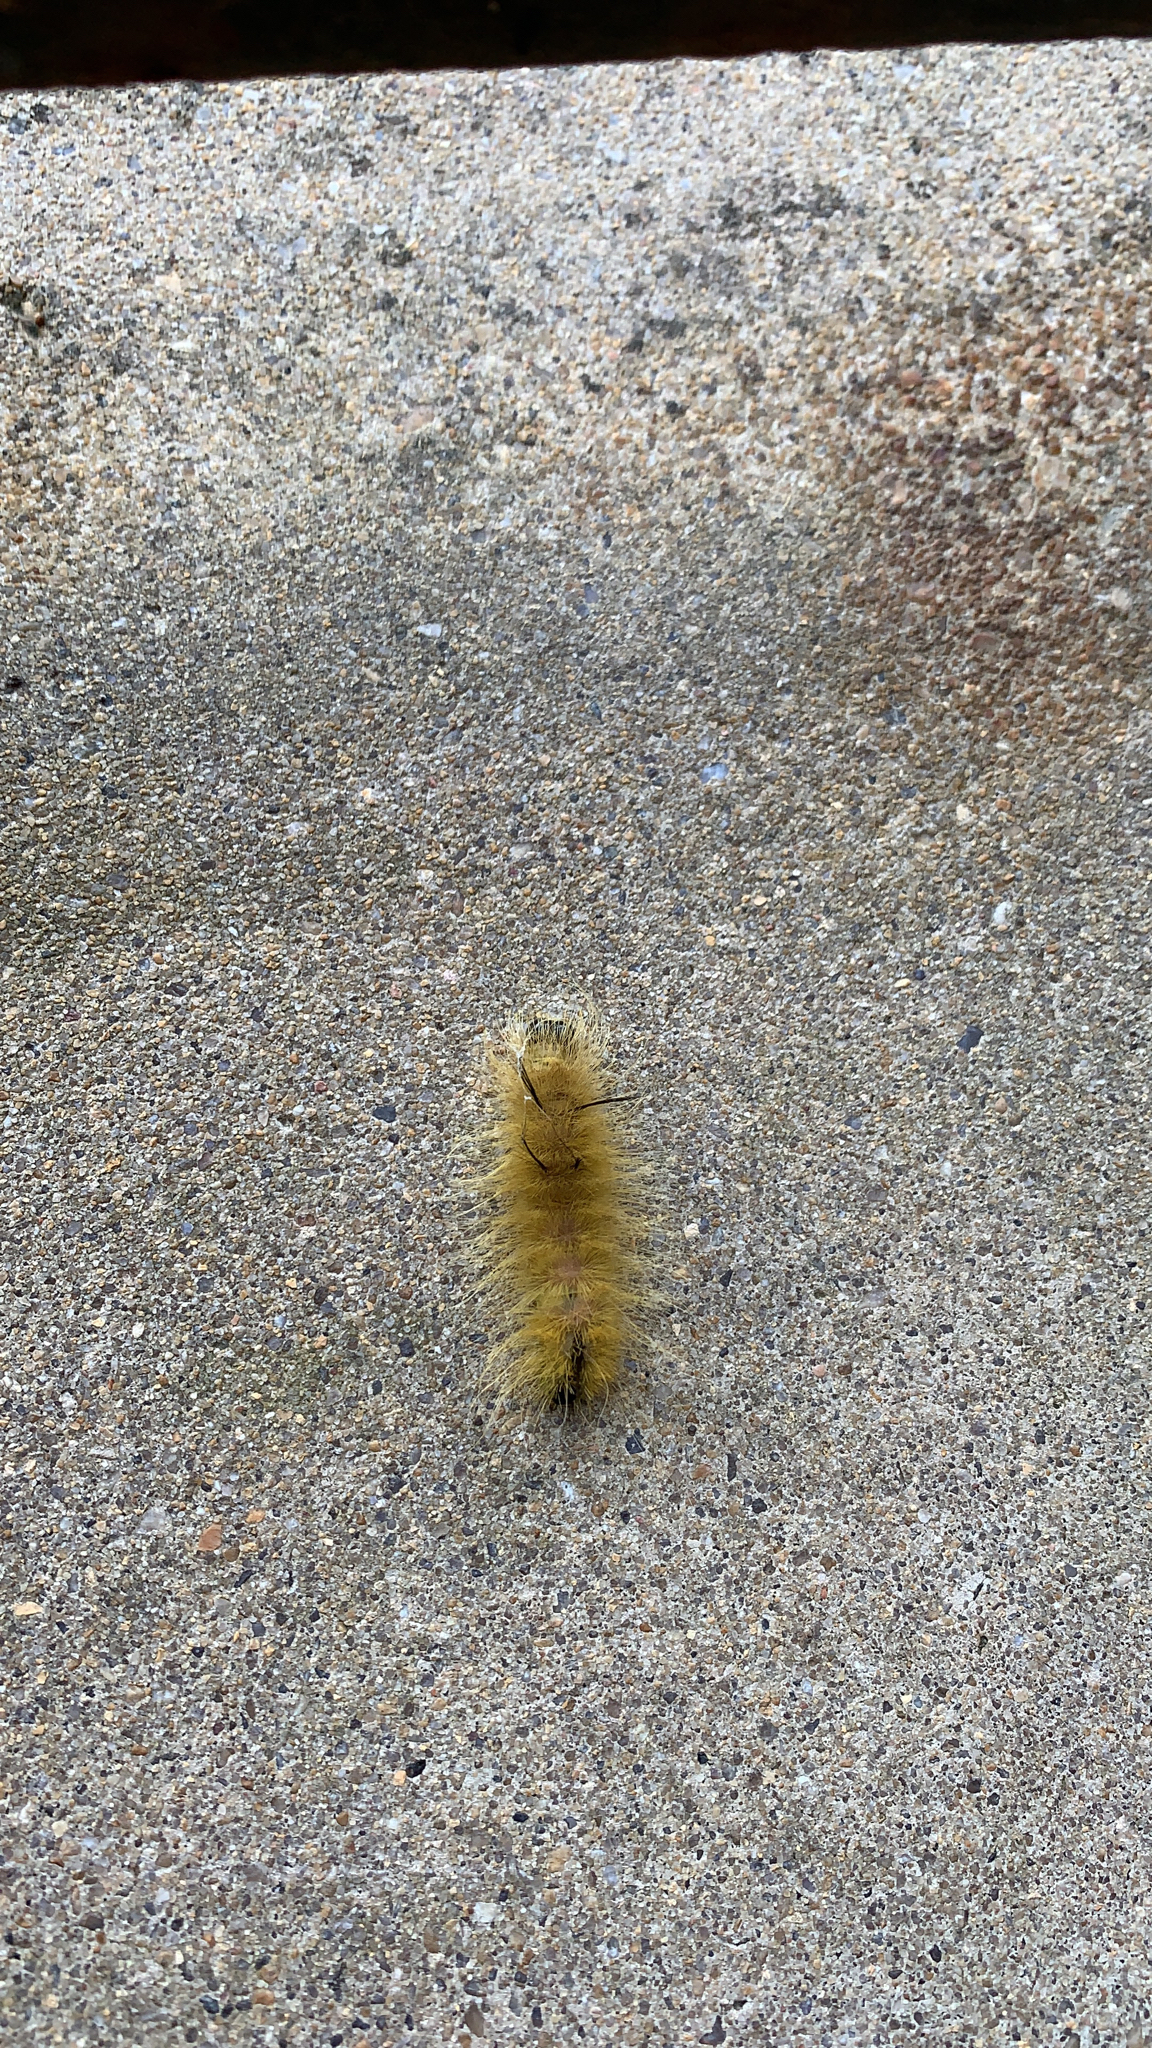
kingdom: Animalia
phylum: Arthropoda
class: Insecta
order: Lepidoptera
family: Noctuidae
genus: Acronicta
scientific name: Acronicta americana
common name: American dagger
